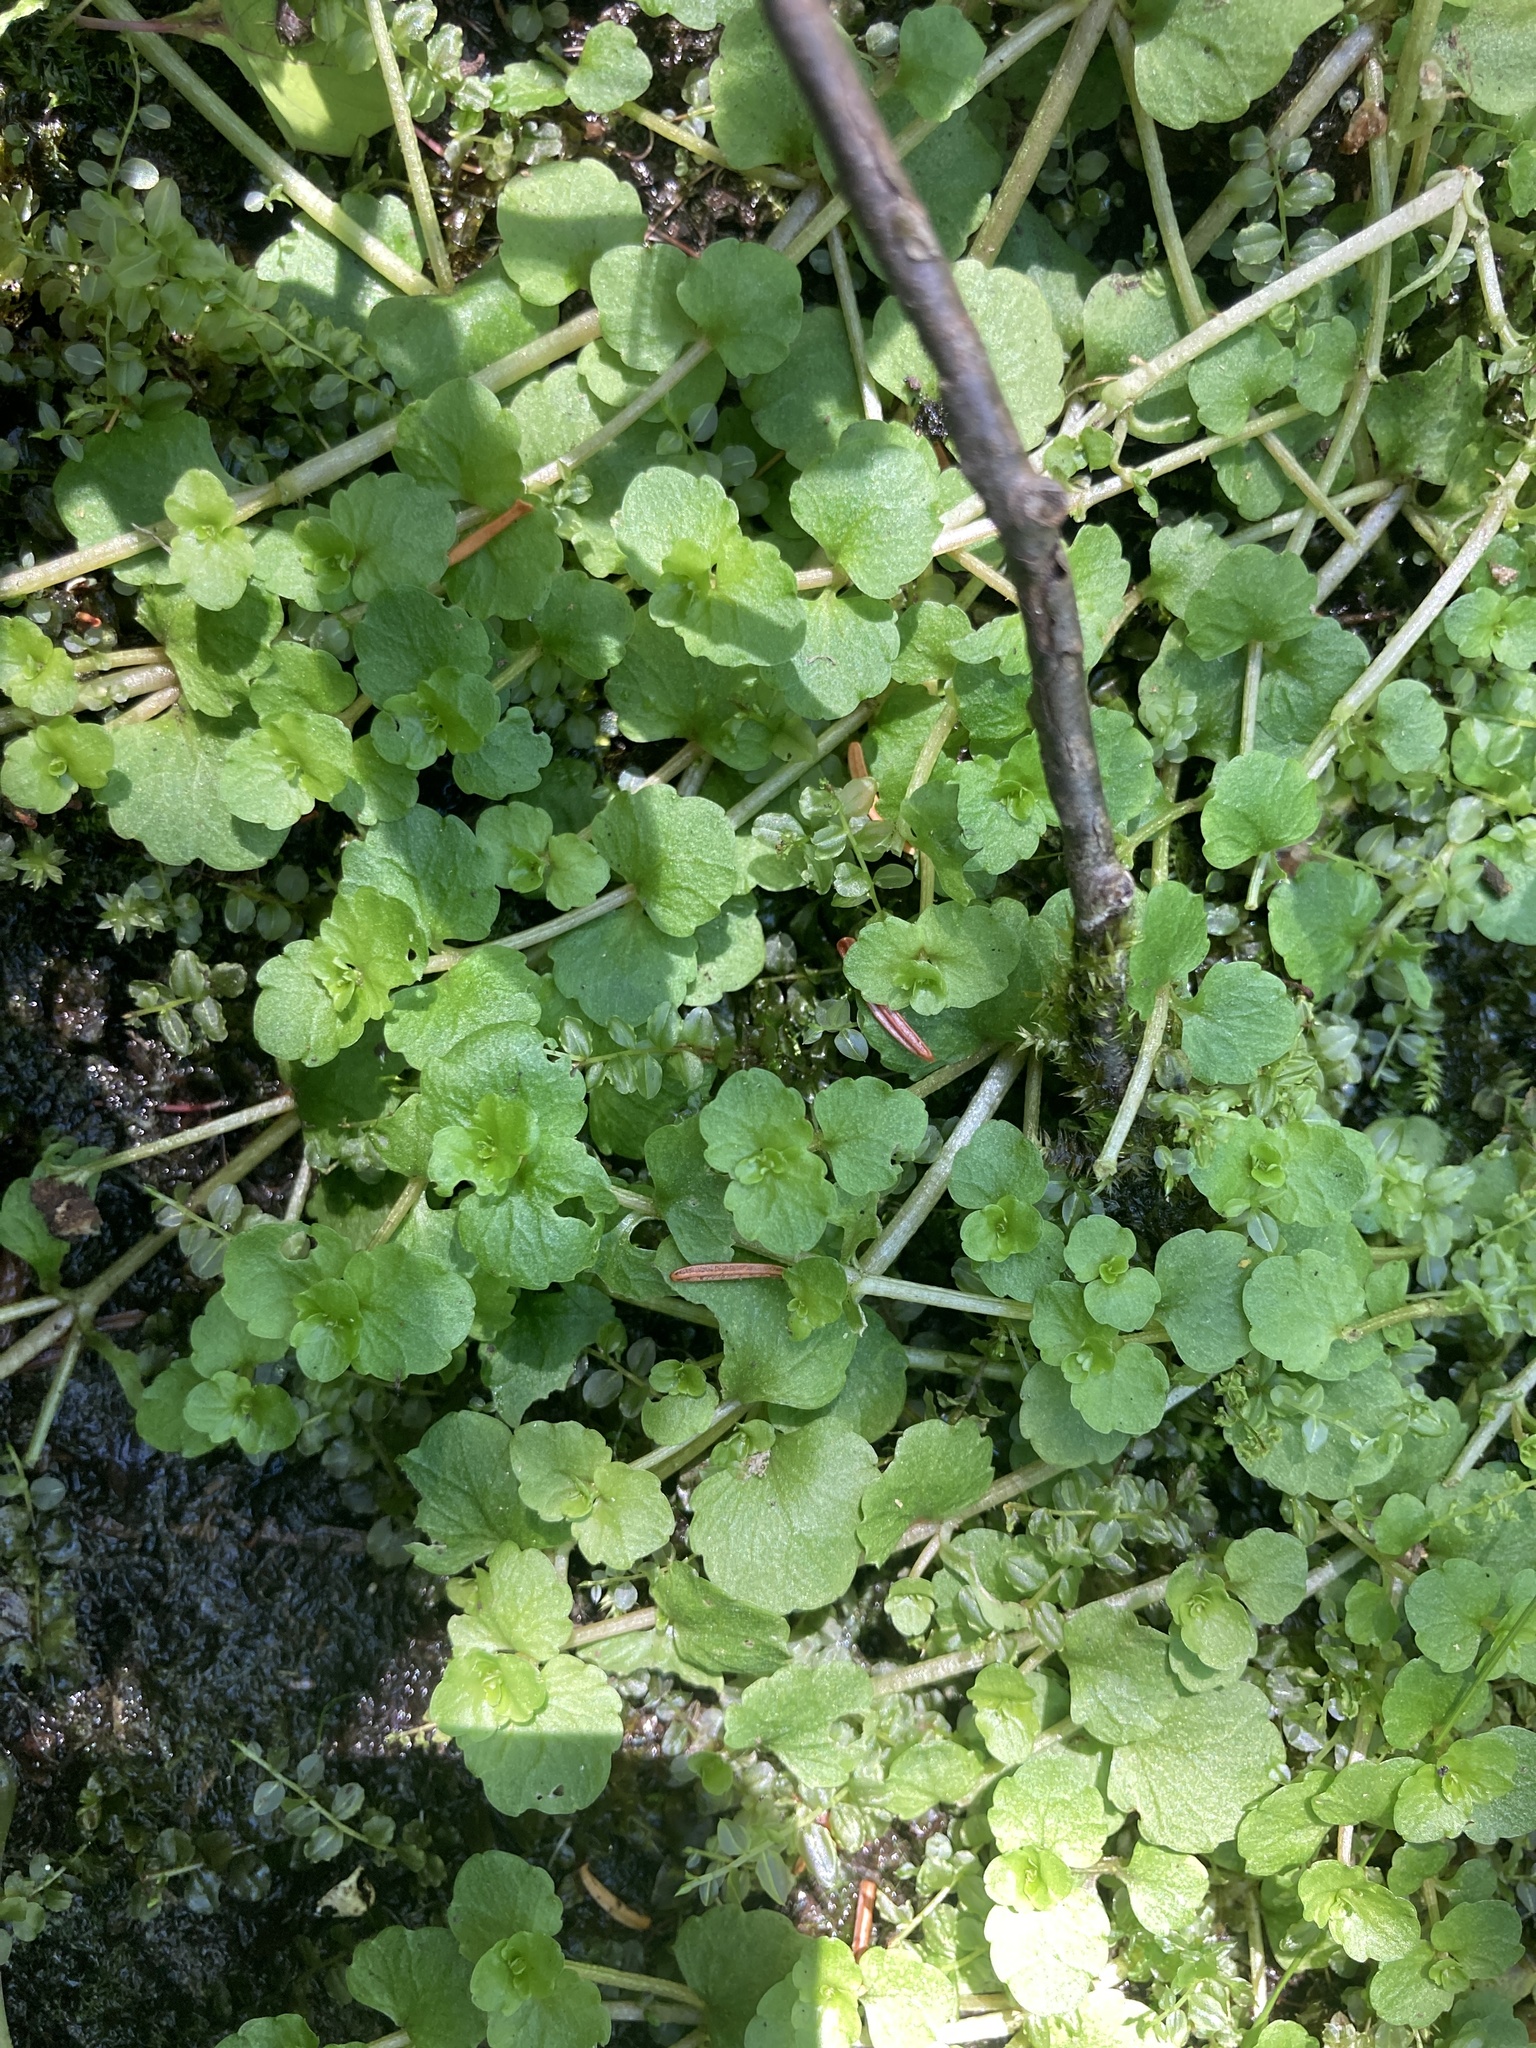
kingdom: Plantae
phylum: Tracheophyta
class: Magnoliopsida
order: Saxifragales
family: Saxifragaceae
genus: Chrysosplenium
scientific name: Chrysosplenium americanum
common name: American golden-saxifrage
